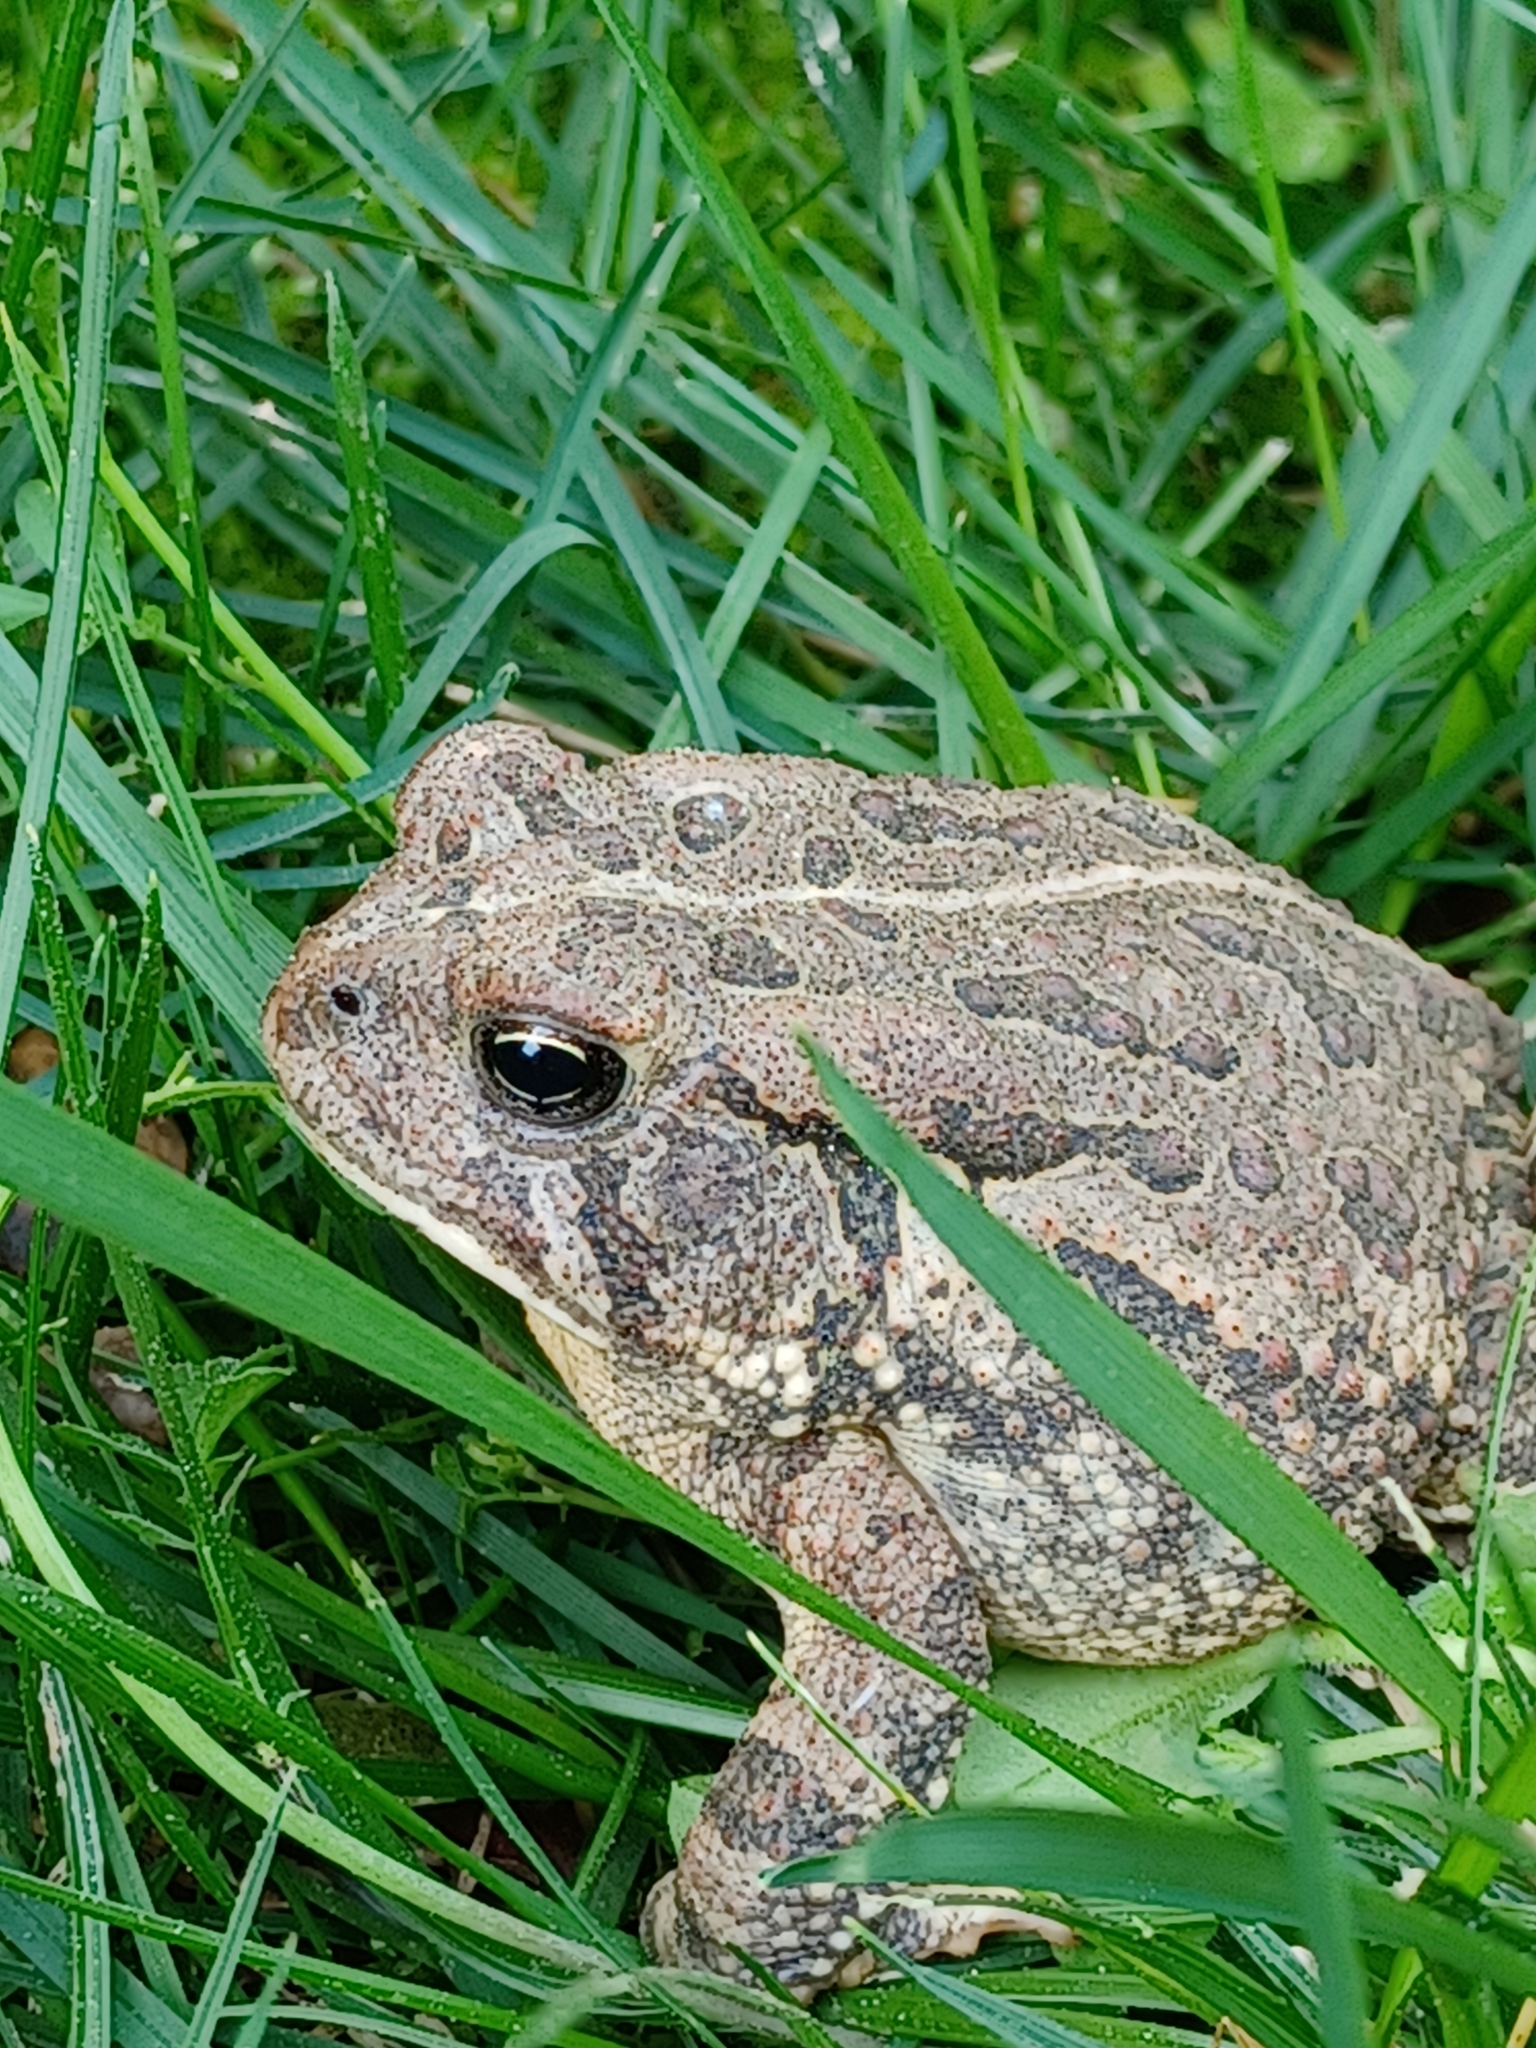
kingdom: Animalia
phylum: Chordata
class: Amphibia
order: Anura
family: Bufonidae
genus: Anaxyrus
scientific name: Anaxyrus fowleri
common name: Fowler's toad
